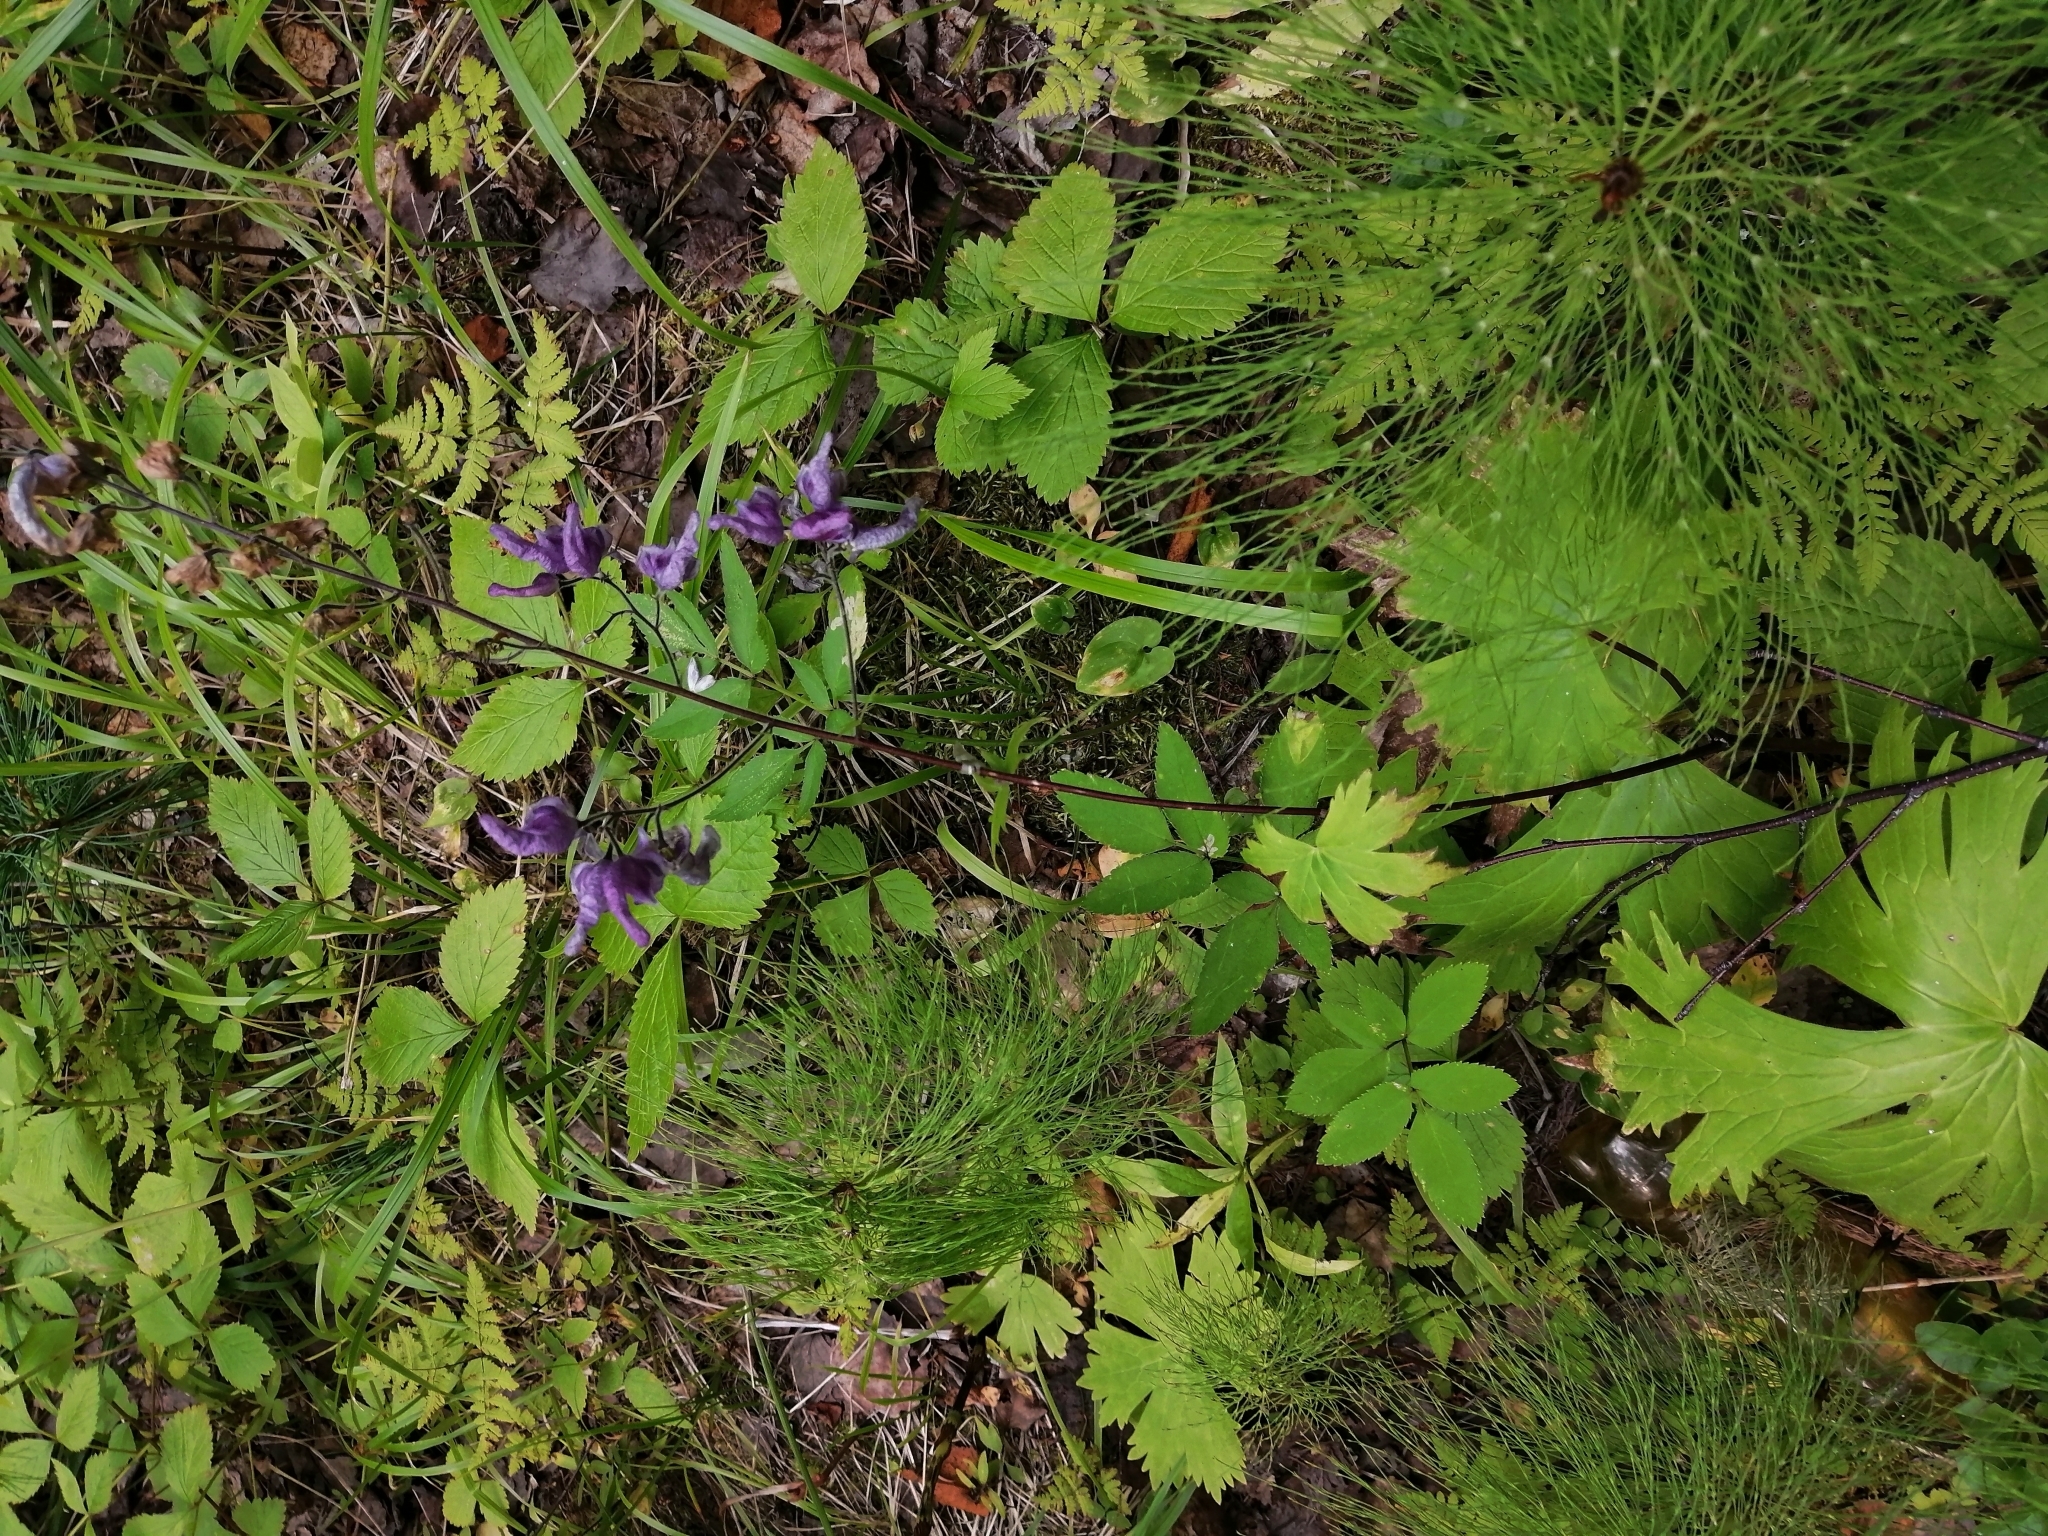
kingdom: Plantae
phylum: Tracheophyta
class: Magnoliopsida
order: Ranunculales
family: Ranunculaceae
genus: Aconitum
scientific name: Aconitum septentrionale
